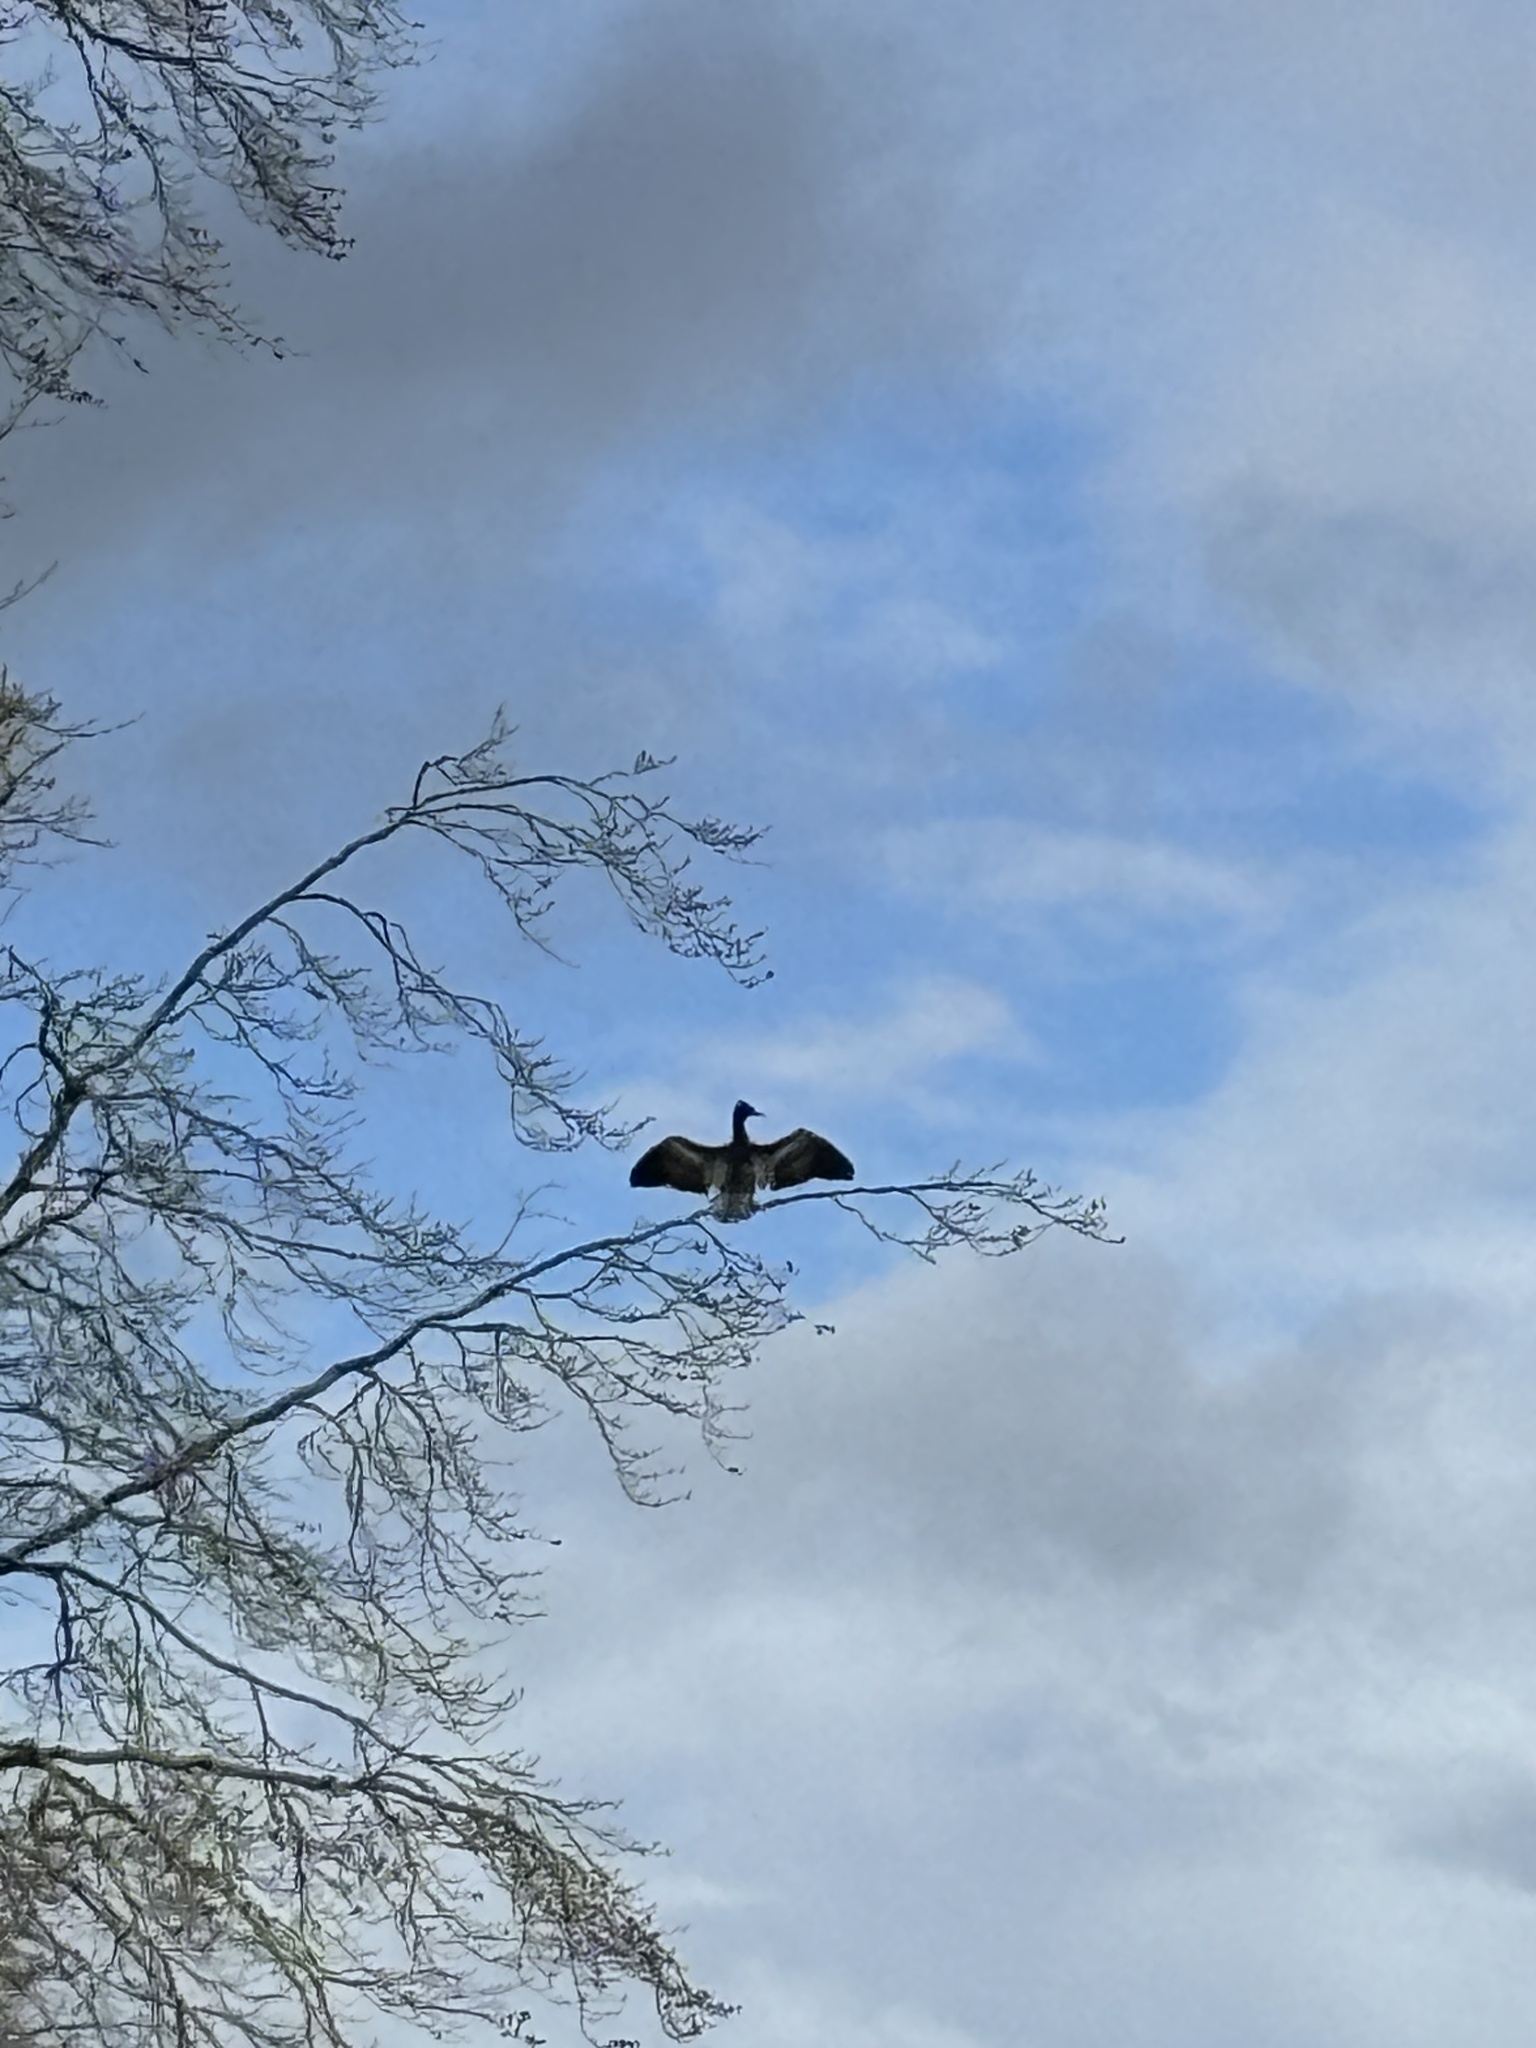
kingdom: Animalia
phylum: Chordata
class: Aves
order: Suliformes
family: Phalacrocoracidae
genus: Phalacrocorax
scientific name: Phalacrocorax carbo
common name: Great cormorant
